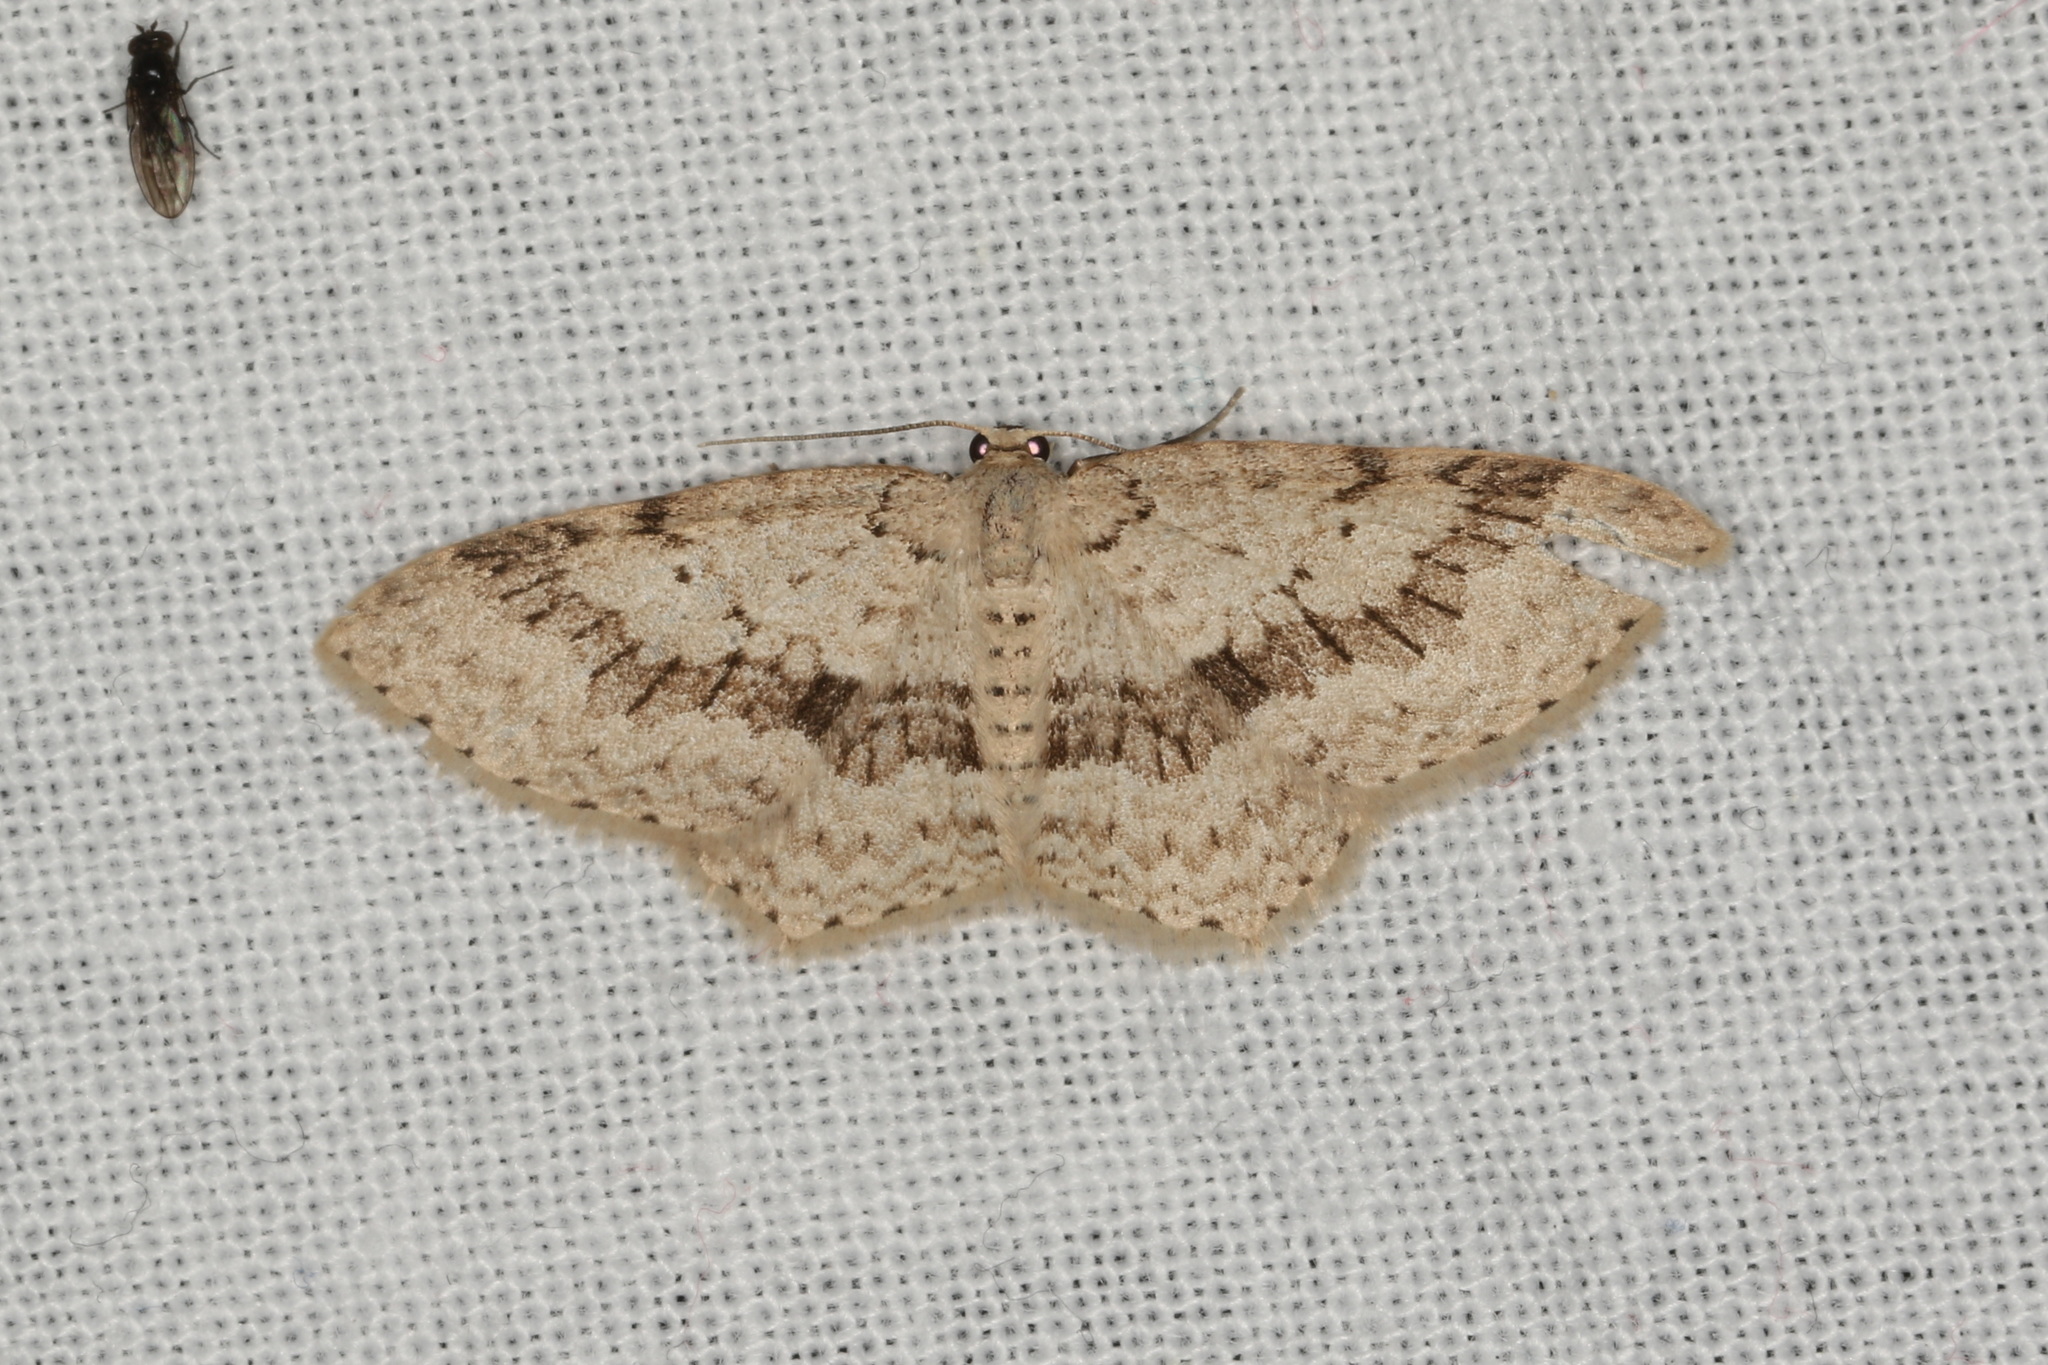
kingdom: Animalia
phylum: Arthropoda
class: Insecta
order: Lepidoptera
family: Geometridae
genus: Minoa
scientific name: Minoa aedaea
